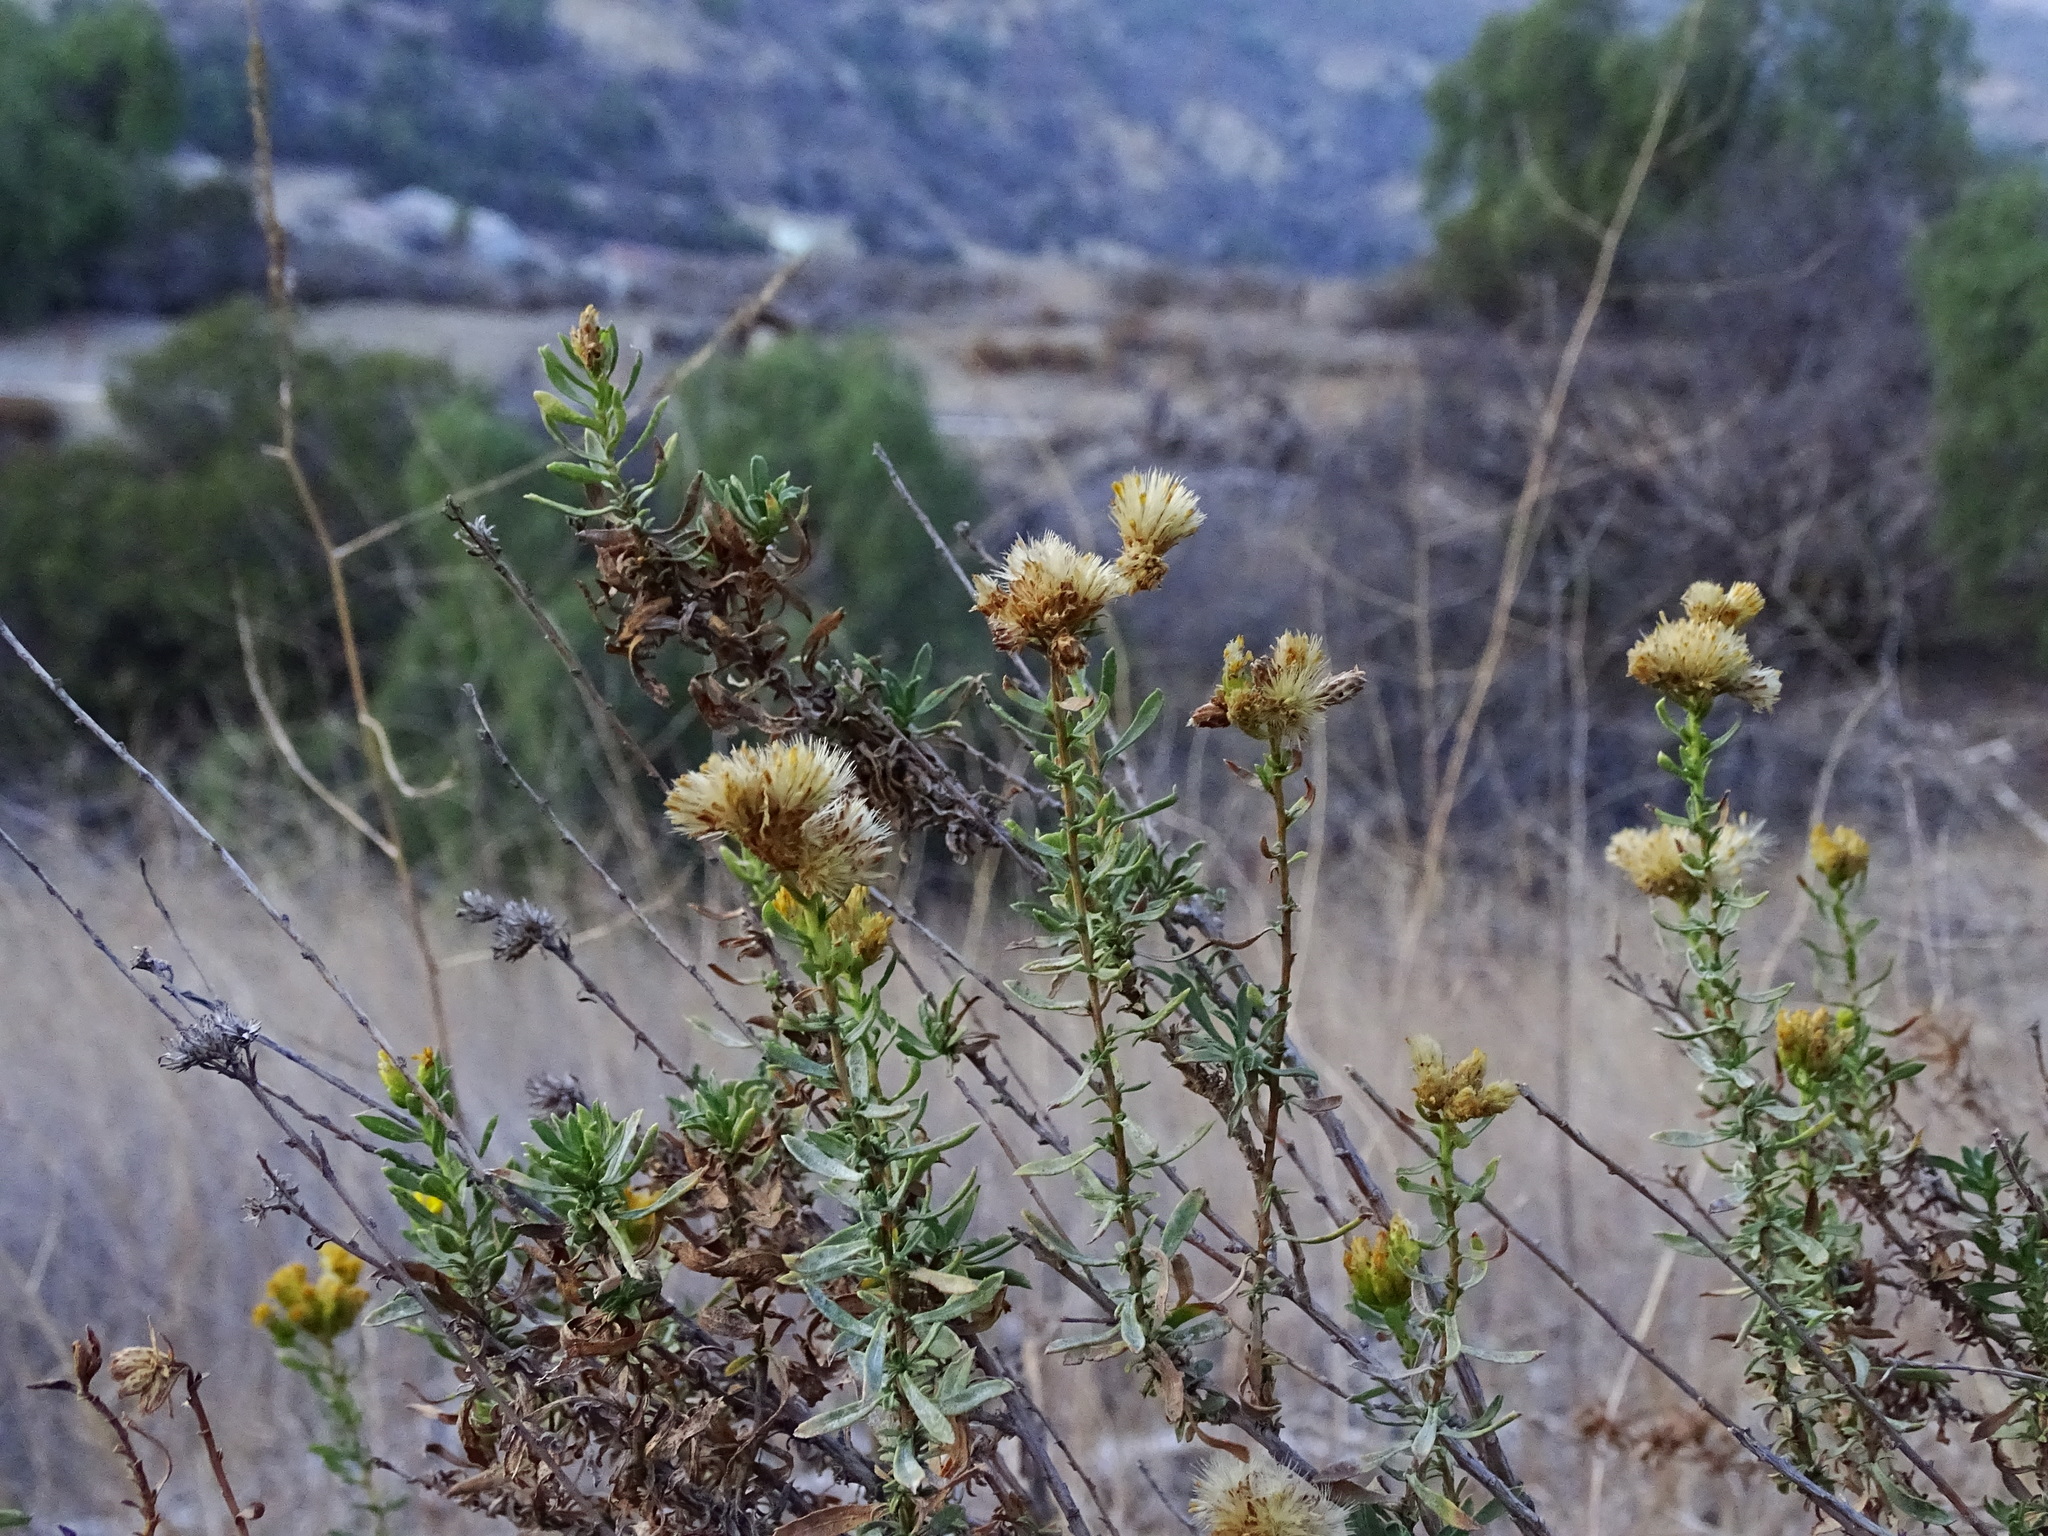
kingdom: Plantae
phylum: Tracheophyta
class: Magnoliopsida
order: Asterales
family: Asteraceae
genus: Isocoma
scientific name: Isocoma menziesii
